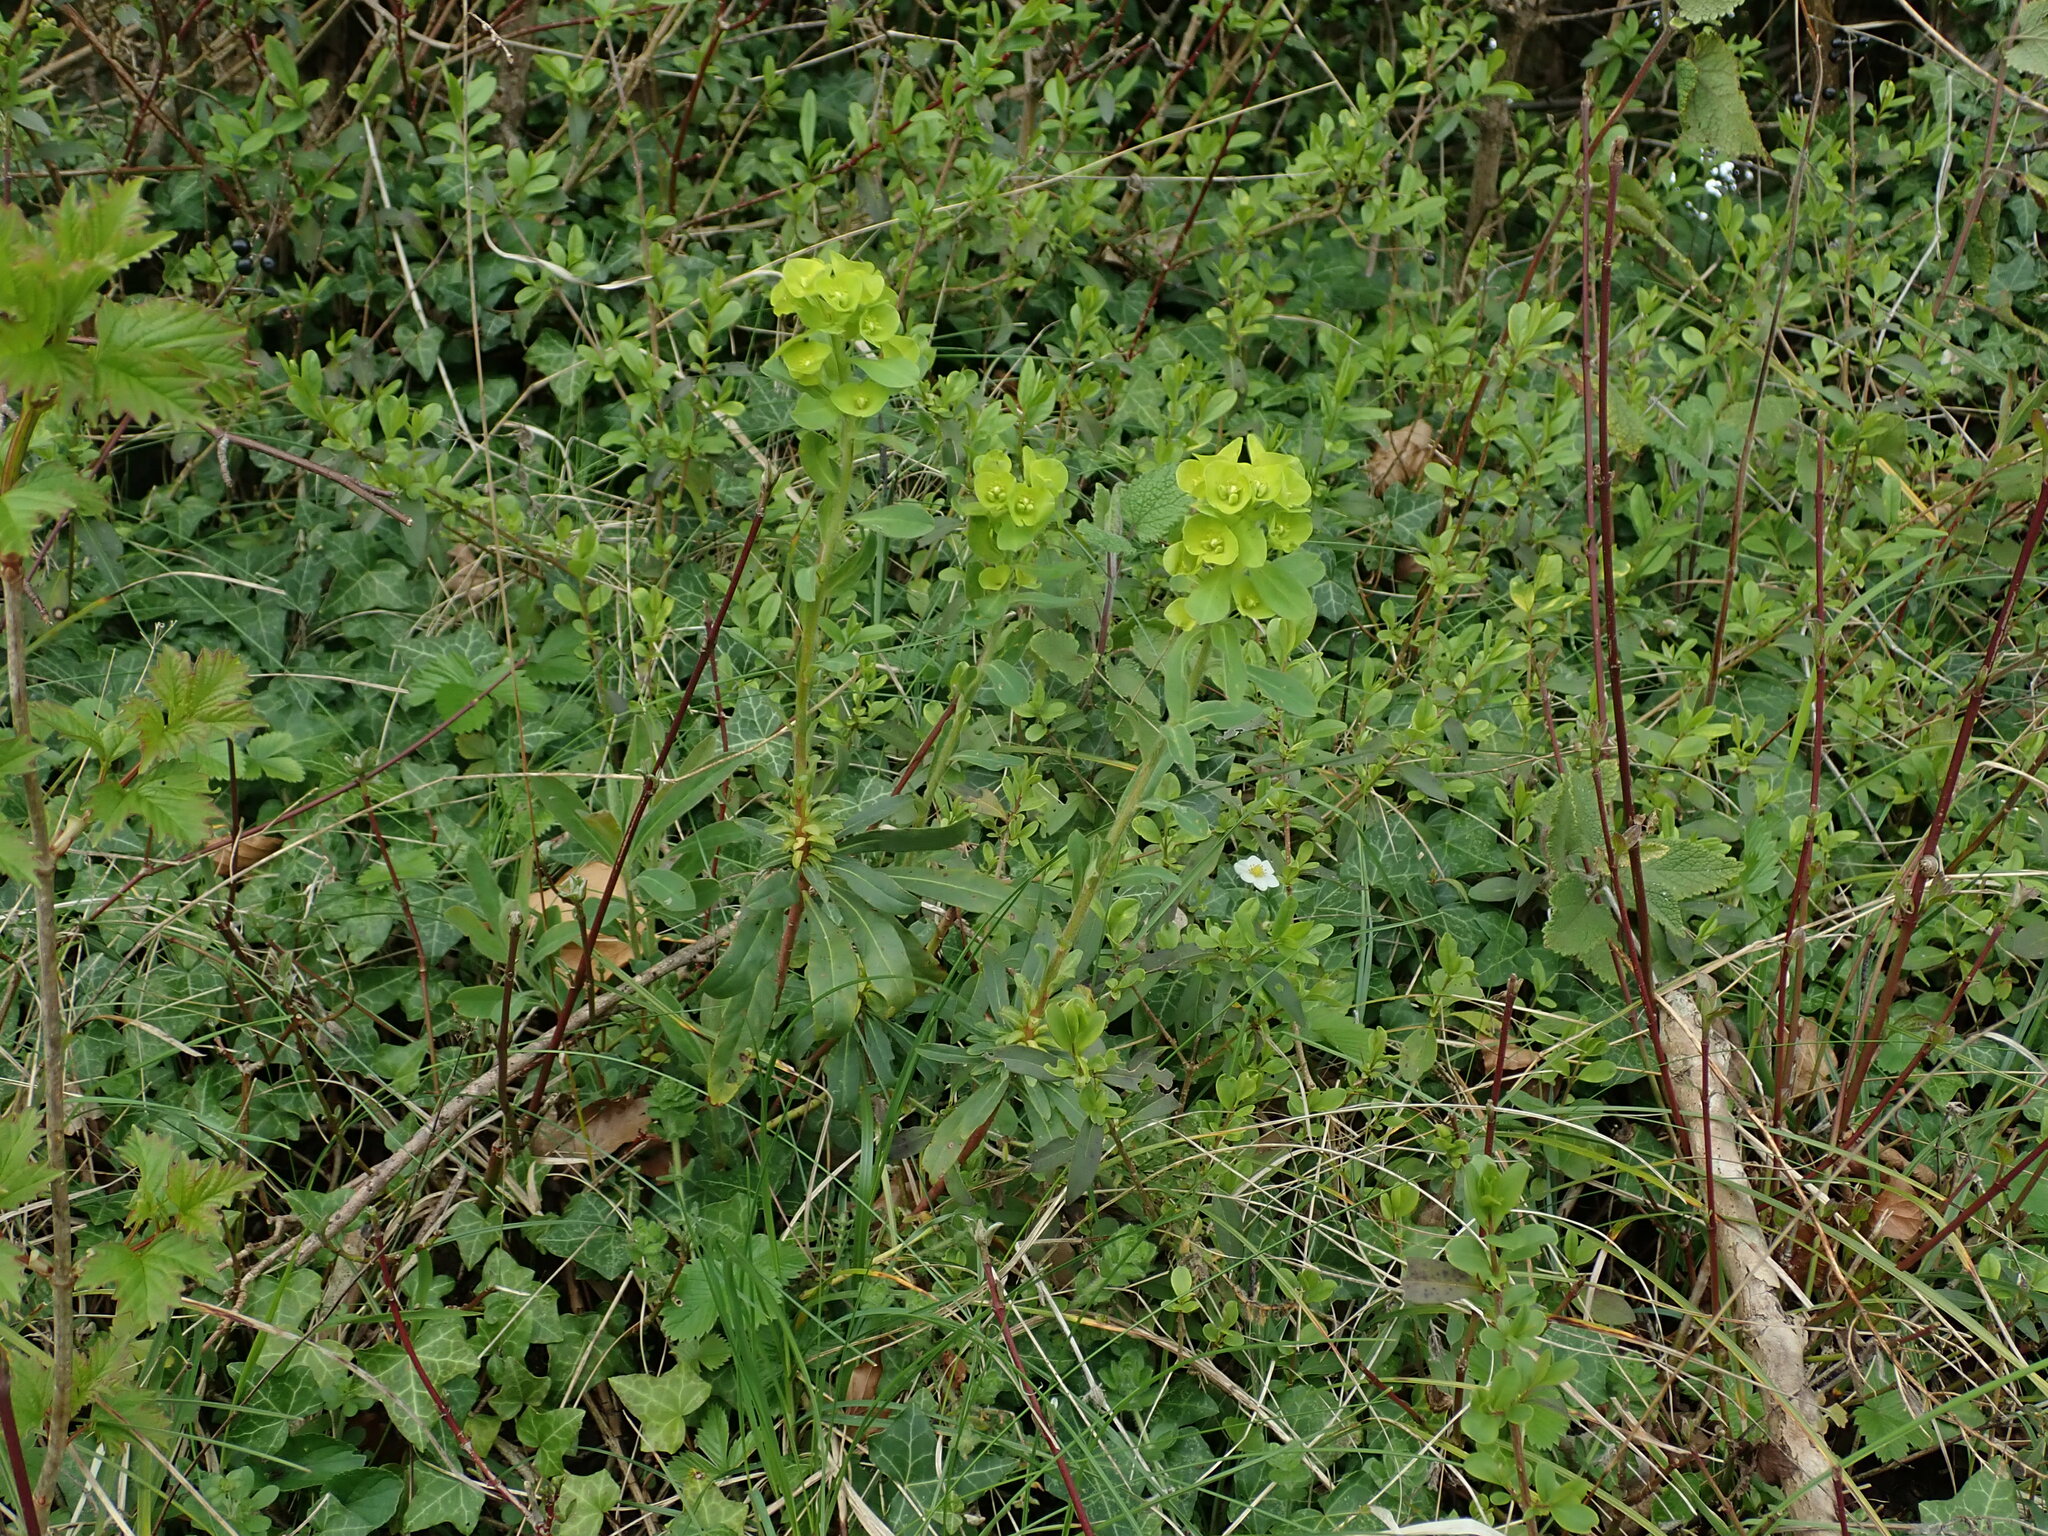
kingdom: Plantae
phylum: Tracheophyta
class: Magnoliopsida
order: Malpighiales
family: Euphorbiaceae
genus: Euphorbia
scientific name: Euphorbia amygdaloides
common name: Wood spurge
